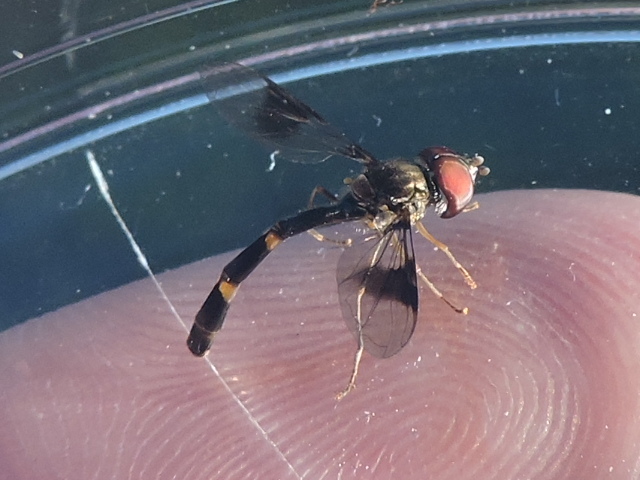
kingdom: Animalia
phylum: Arthropoda
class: Insecta
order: Diptera
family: Syrphidae
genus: Hypocritanus
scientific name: Hypocritanus fascipennis
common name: Eastern band-winged hover fly
